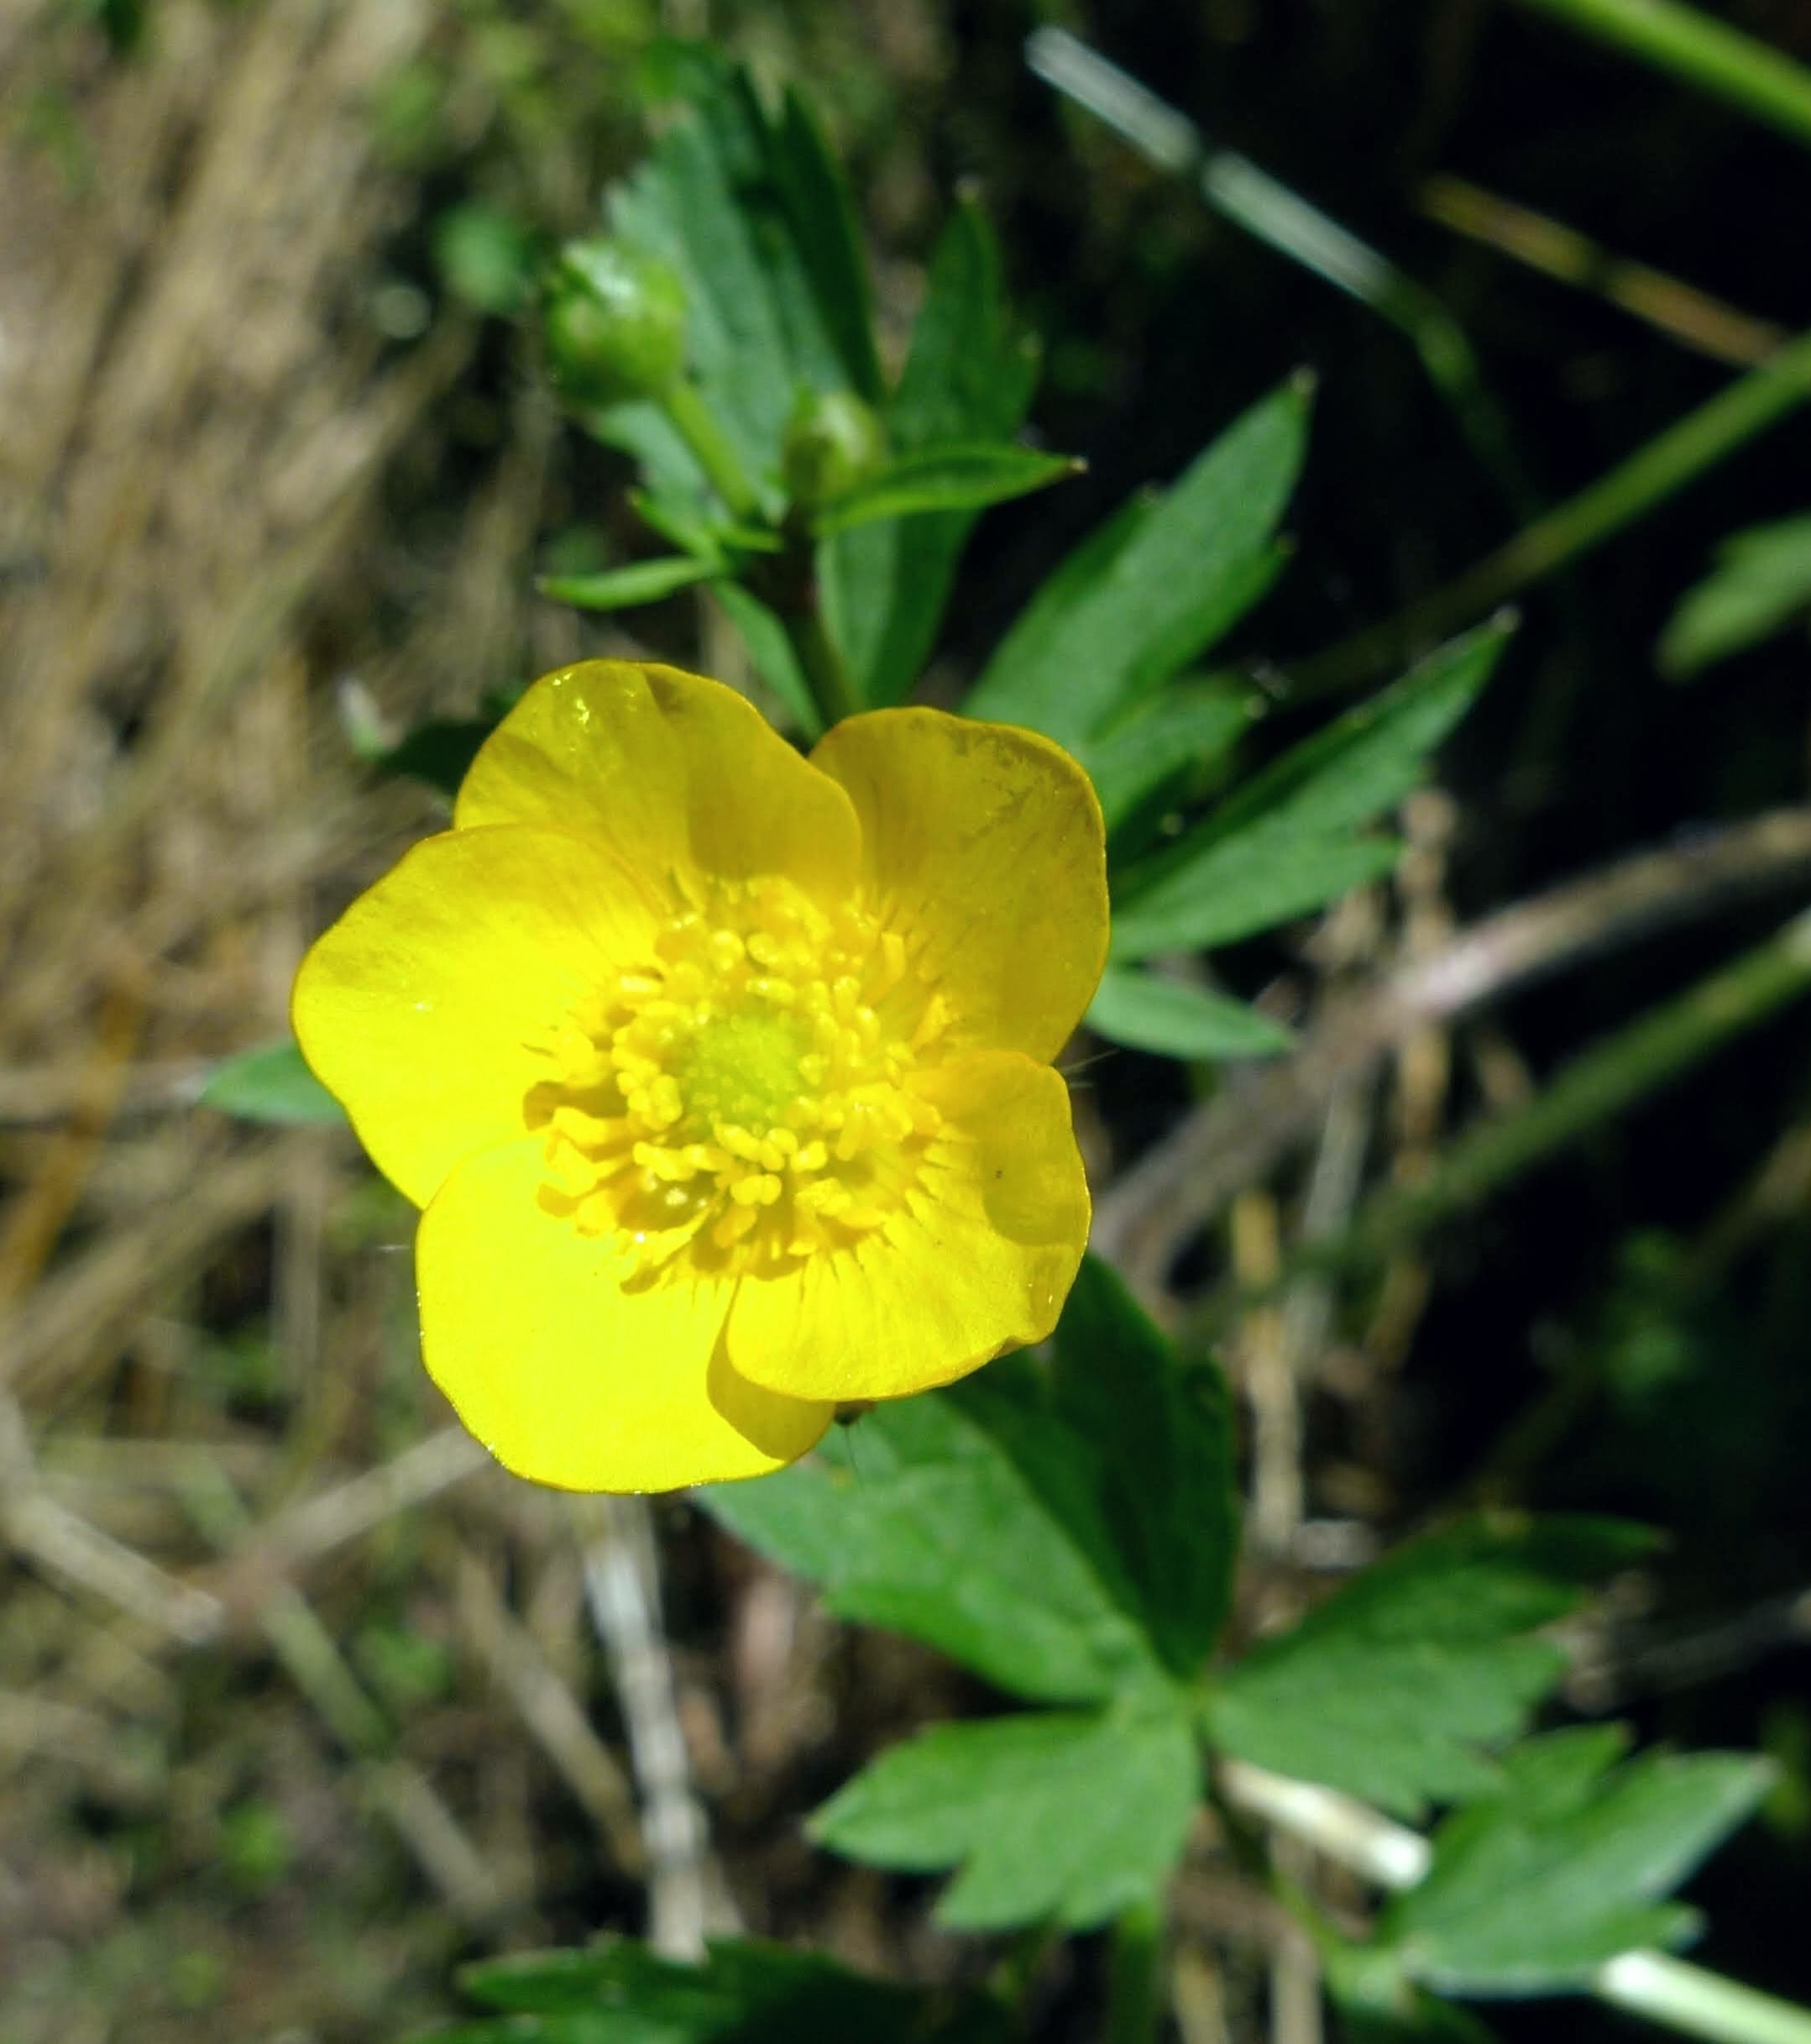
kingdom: Plantae
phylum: Tracheophyta
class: Magnoliopsida
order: Ranunculales
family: Ranunculaceae
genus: Ranunculus
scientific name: Ranunculus repens
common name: Creeping buttercup
